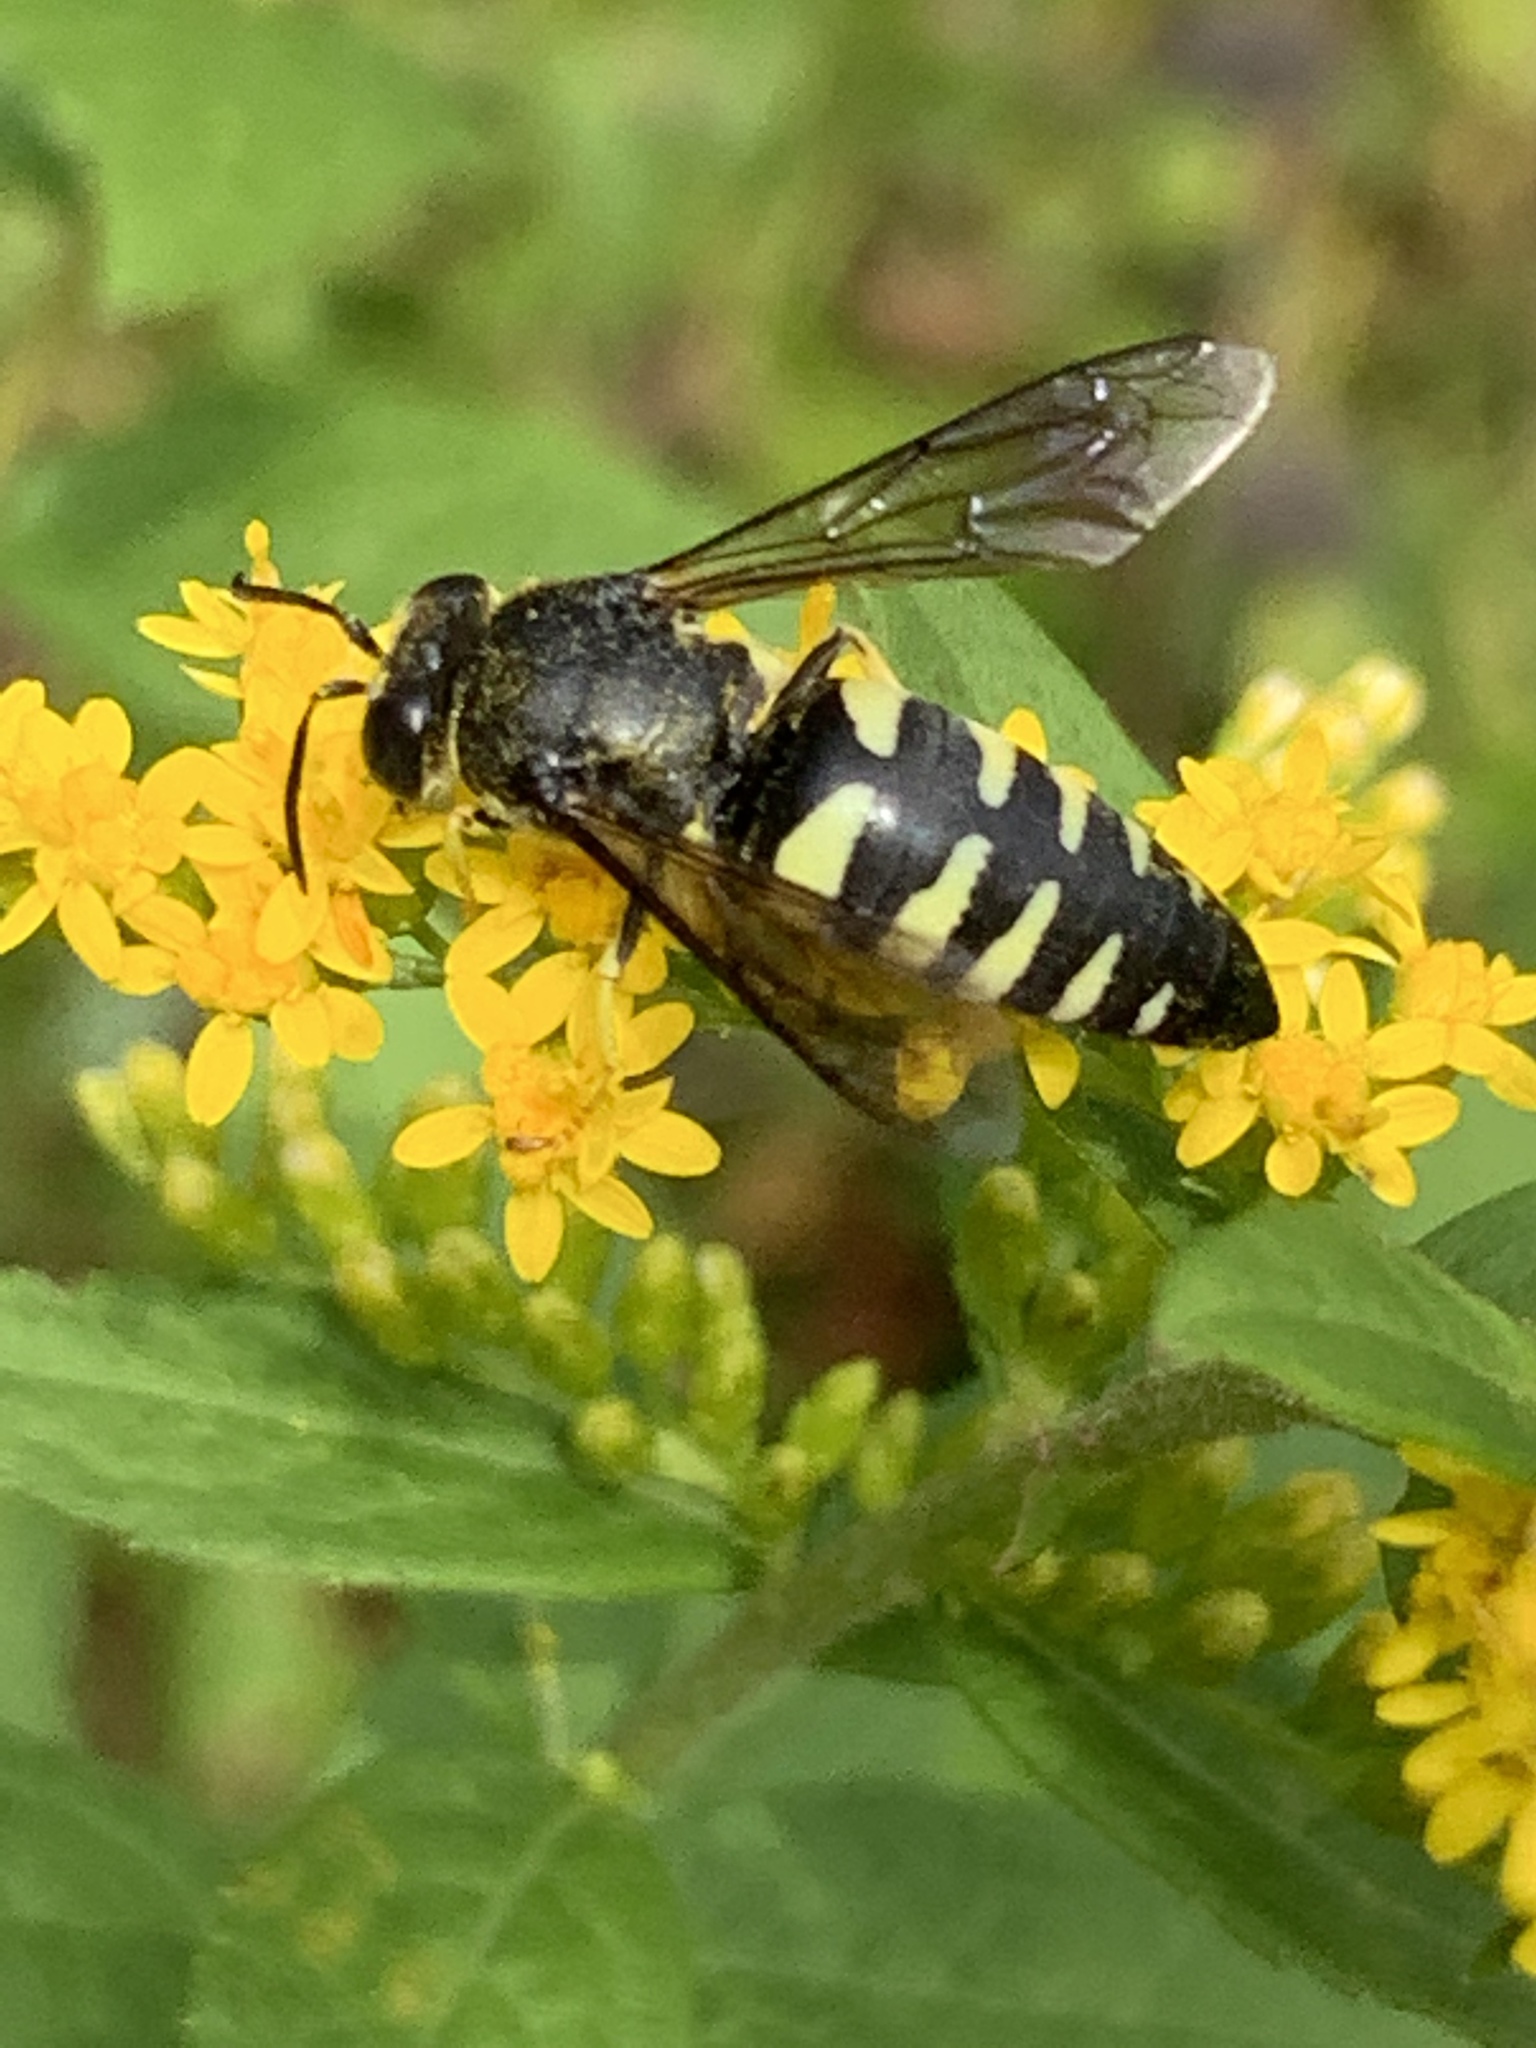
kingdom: Animalia
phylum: Arthropoda
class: Insecta
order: Hymenoptera
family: Crabronidae
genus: Bicyrtes
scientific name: Bicyrtes quadrifasciatus
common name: Four-banded stink bug hunter wasp
